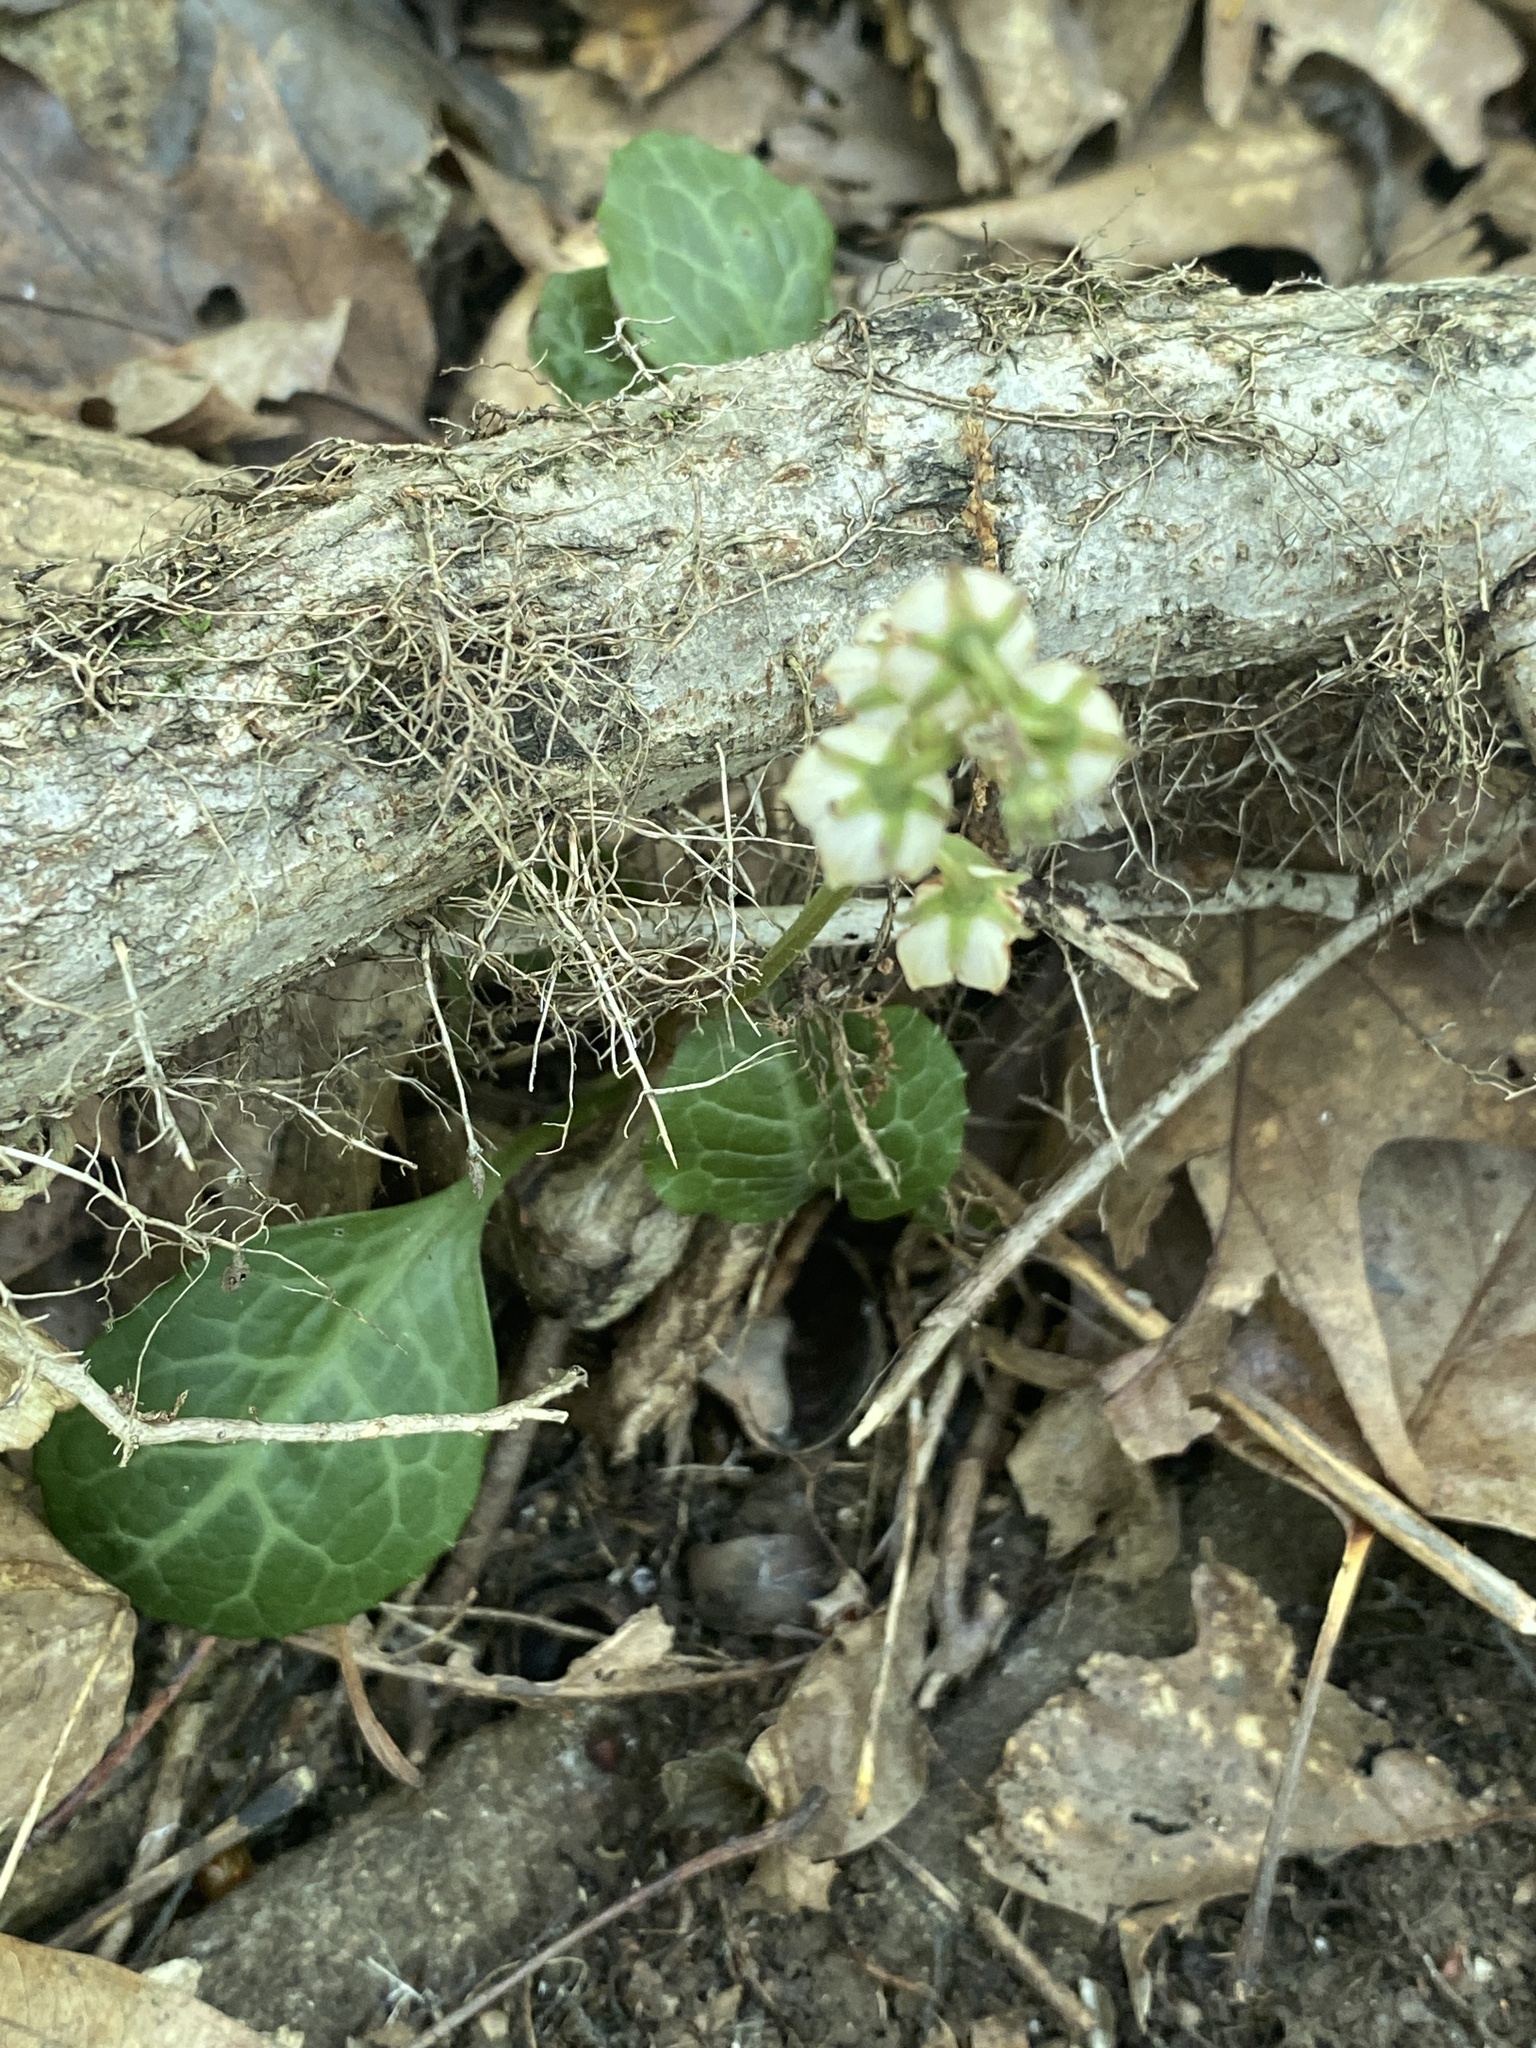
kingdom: Plantae
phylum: Tracheophyta
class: Magnoliopsida
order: Ericales
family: Ericaceae
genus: Pyrola
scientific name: Pyrola americana
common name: American wintergreen
